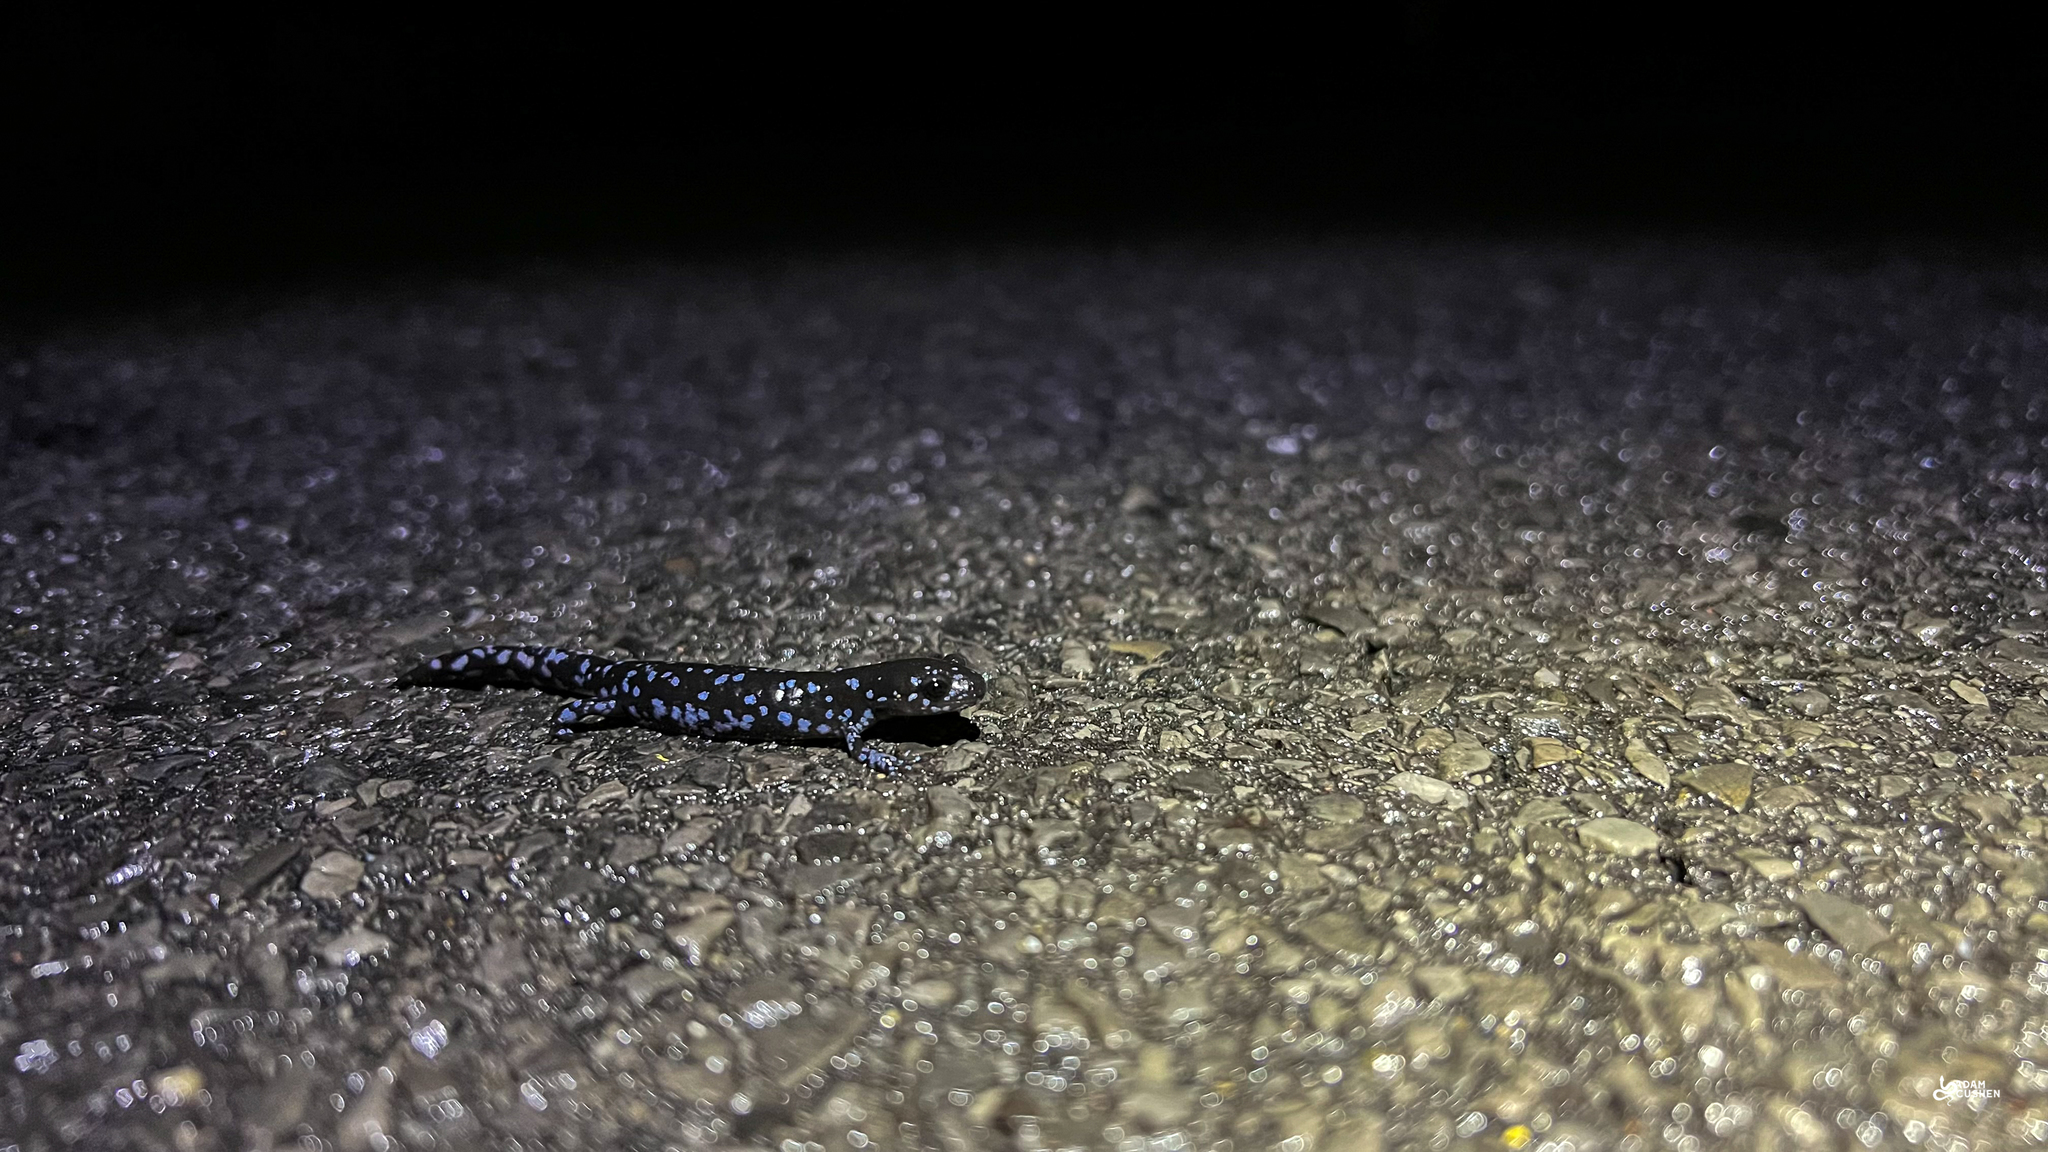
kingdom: Animalia
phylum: Chordata
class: Amphibia
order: Caudata
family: Ambystomatidae
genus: Ambystoma
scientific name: Ambystoma laterale
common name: Blue-spotted salamander
